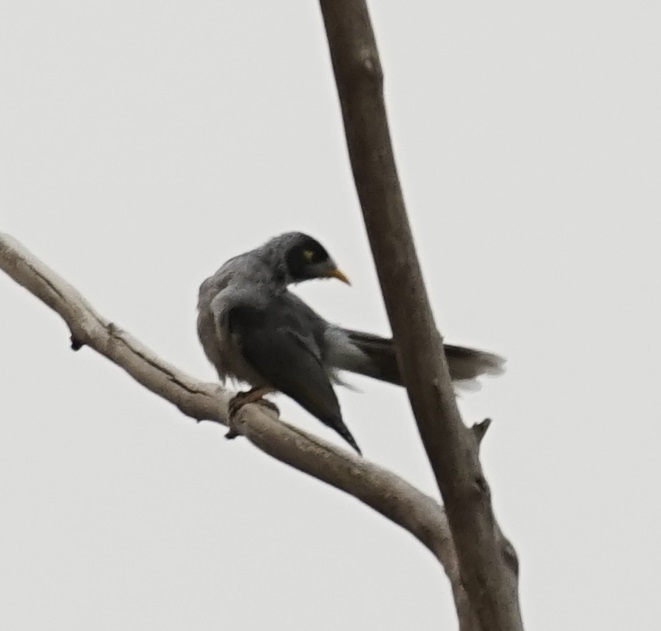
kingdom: Animalia
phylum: Chordata
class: Aves
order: Passeriformes
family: Meliphagidae
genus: Manorina
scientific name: Manorina melanocephala
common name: Noisy miner
